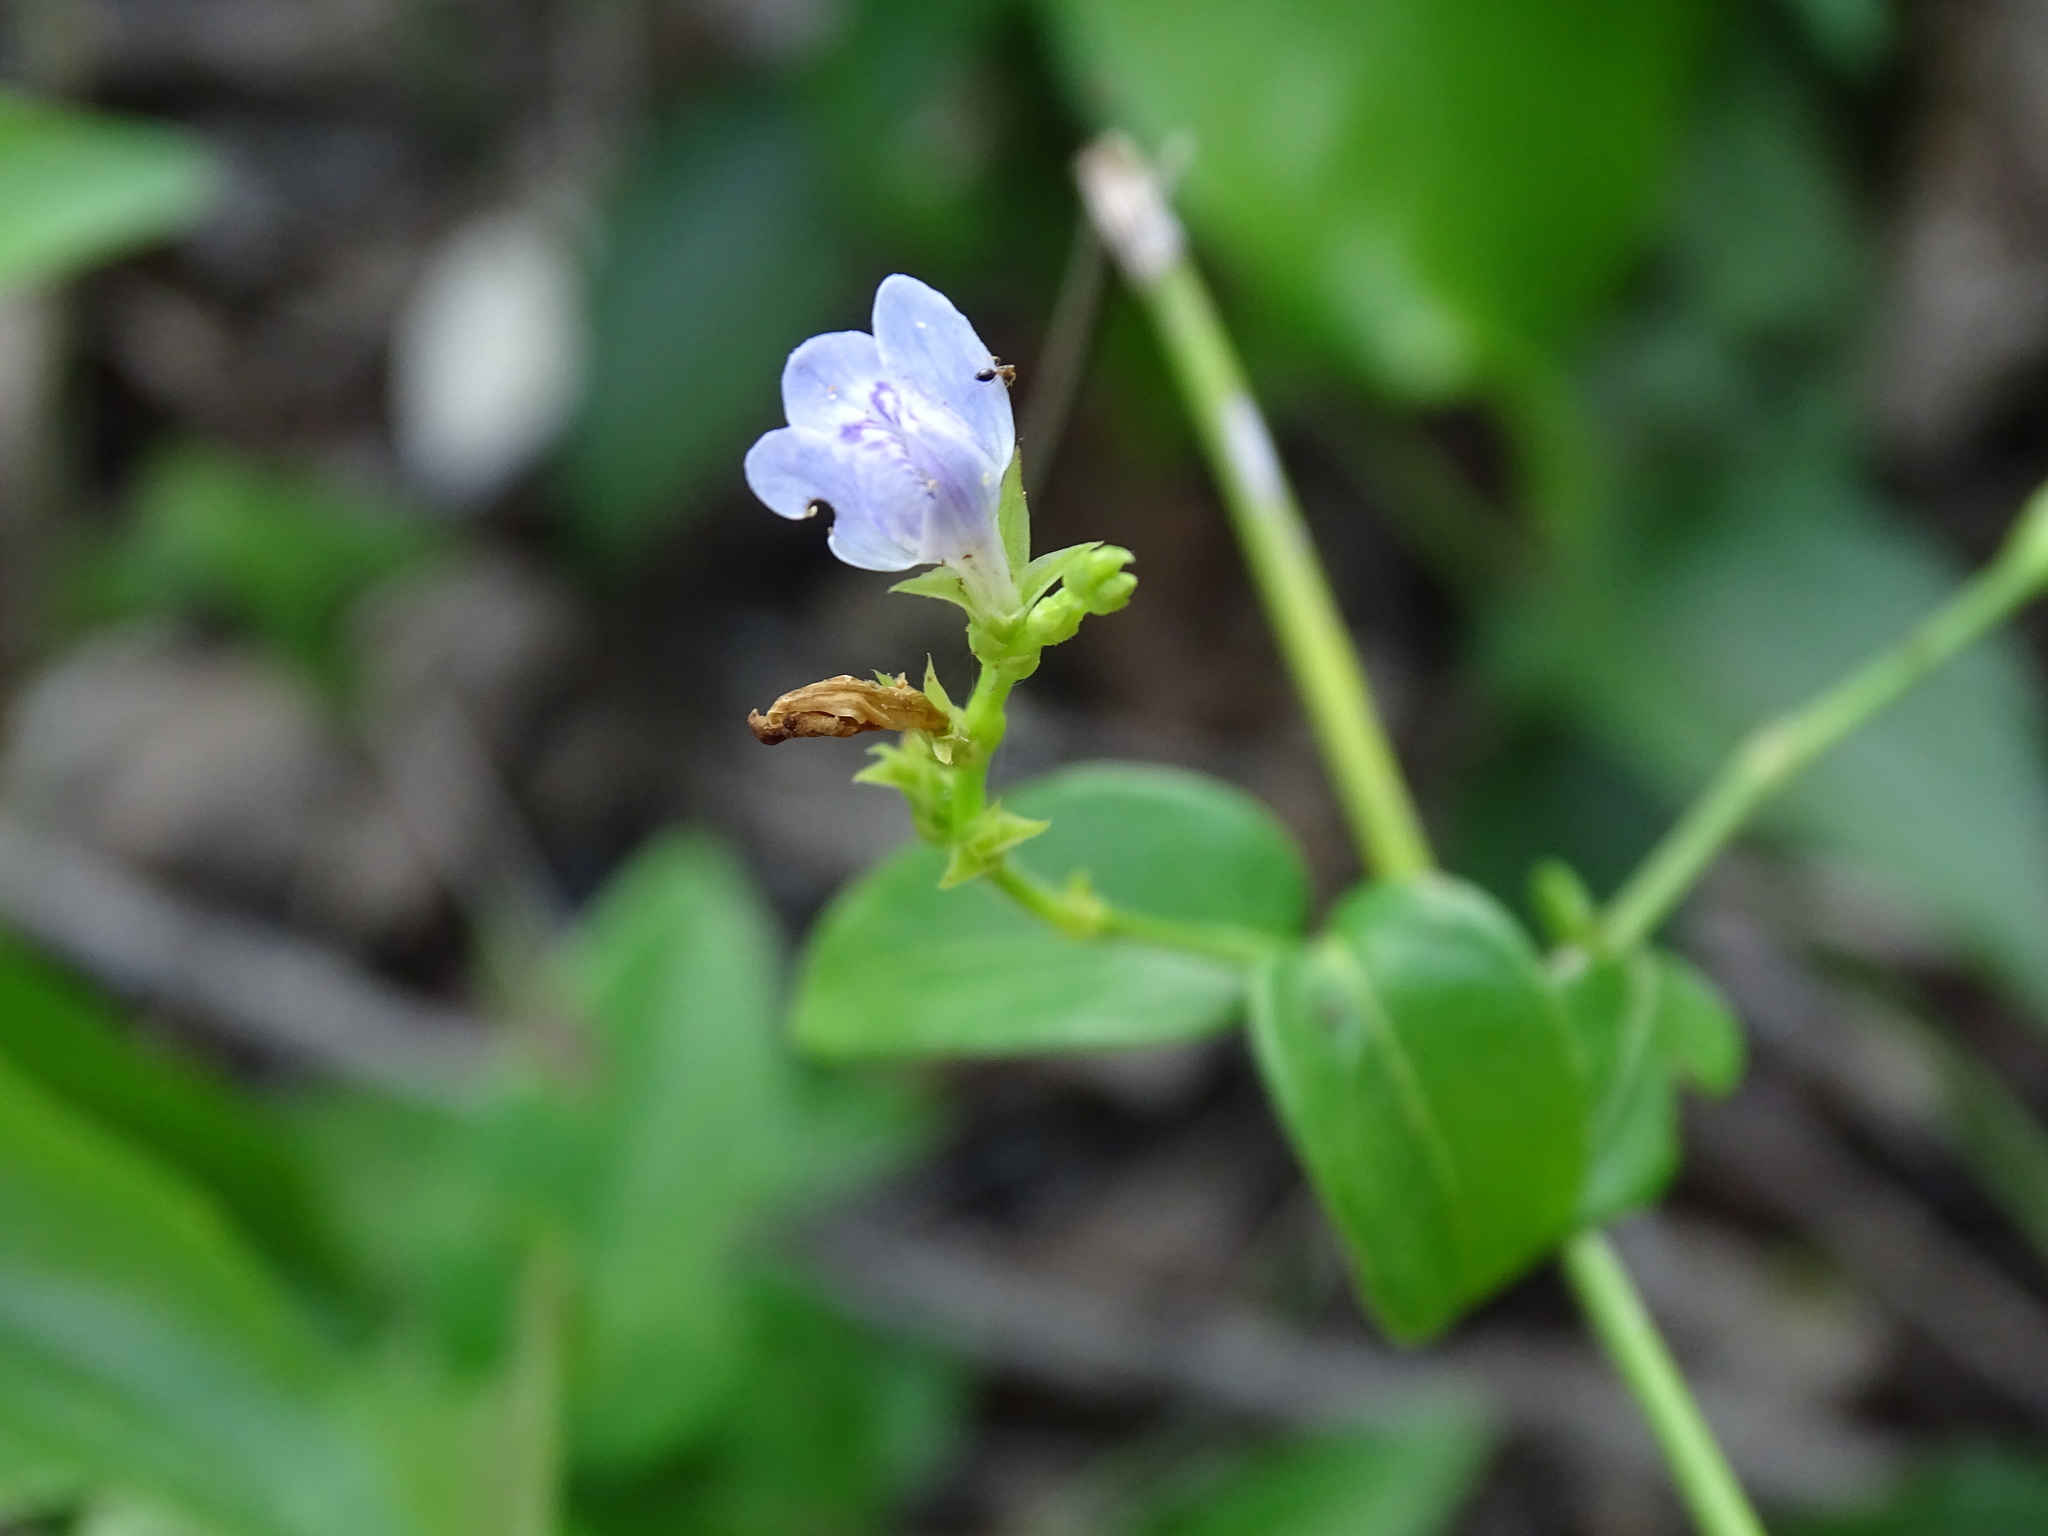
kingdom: Plantae
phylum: Tracheophyta
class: Magnoliopsida
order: Lamiales
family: Acanthaceae
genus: Justicia
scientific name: Justicia cobensis
